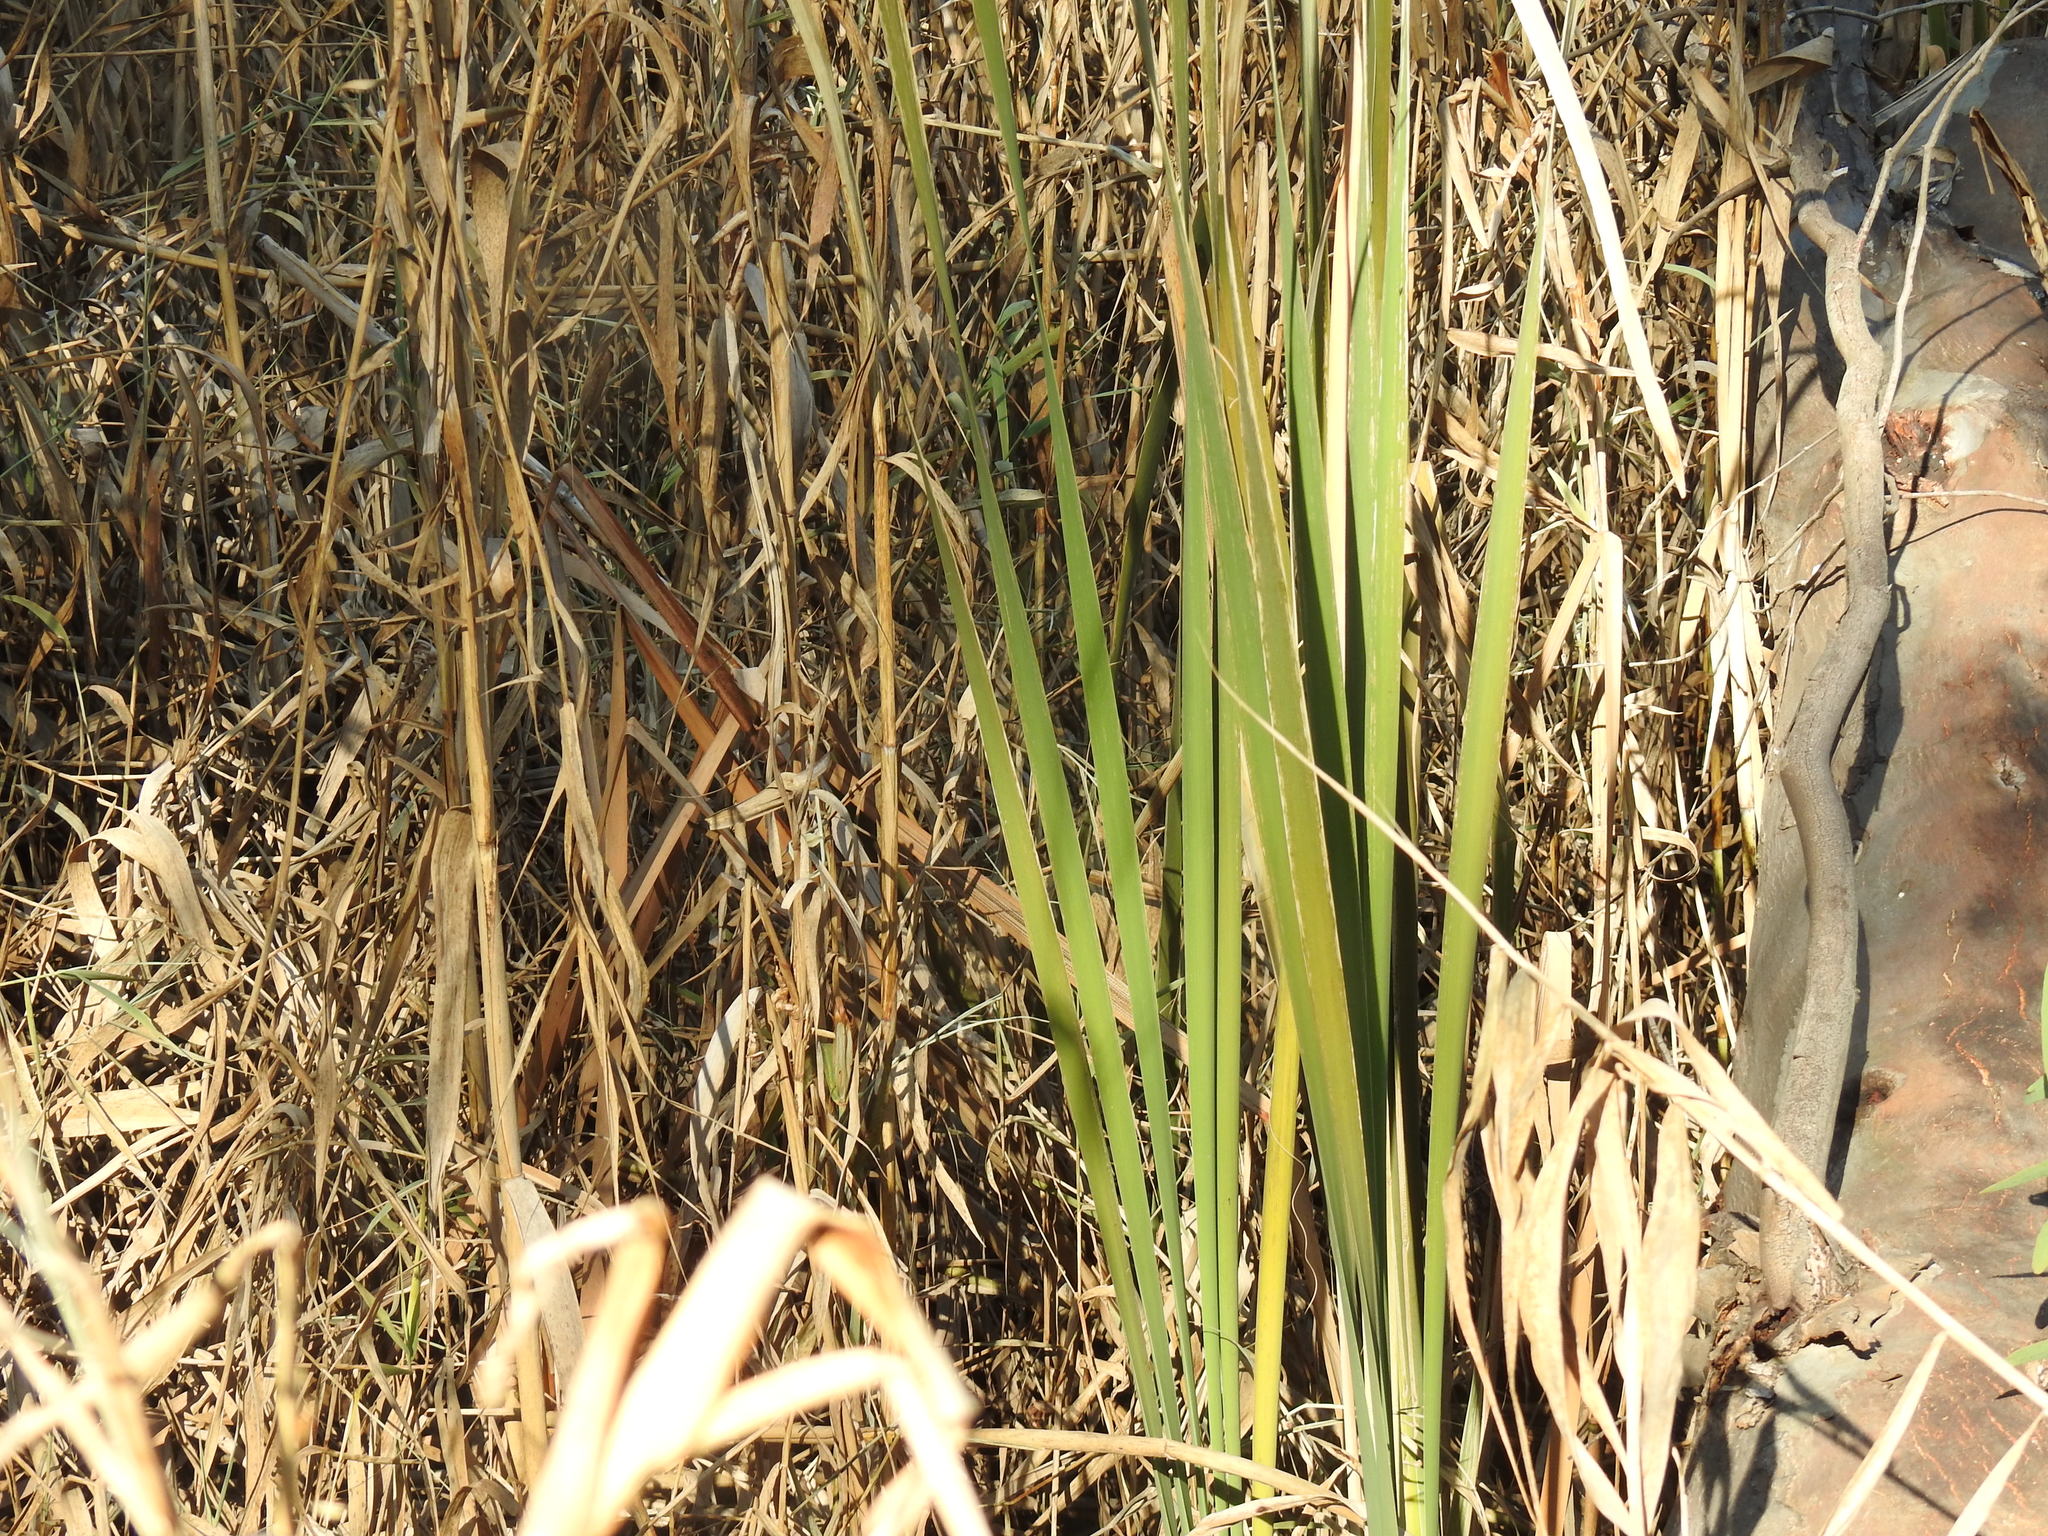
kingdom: Plantae
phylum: Tracheophyta
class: Liliopsida
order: Poales
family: Typhaceae
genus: Typha
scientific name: Typha capensis
